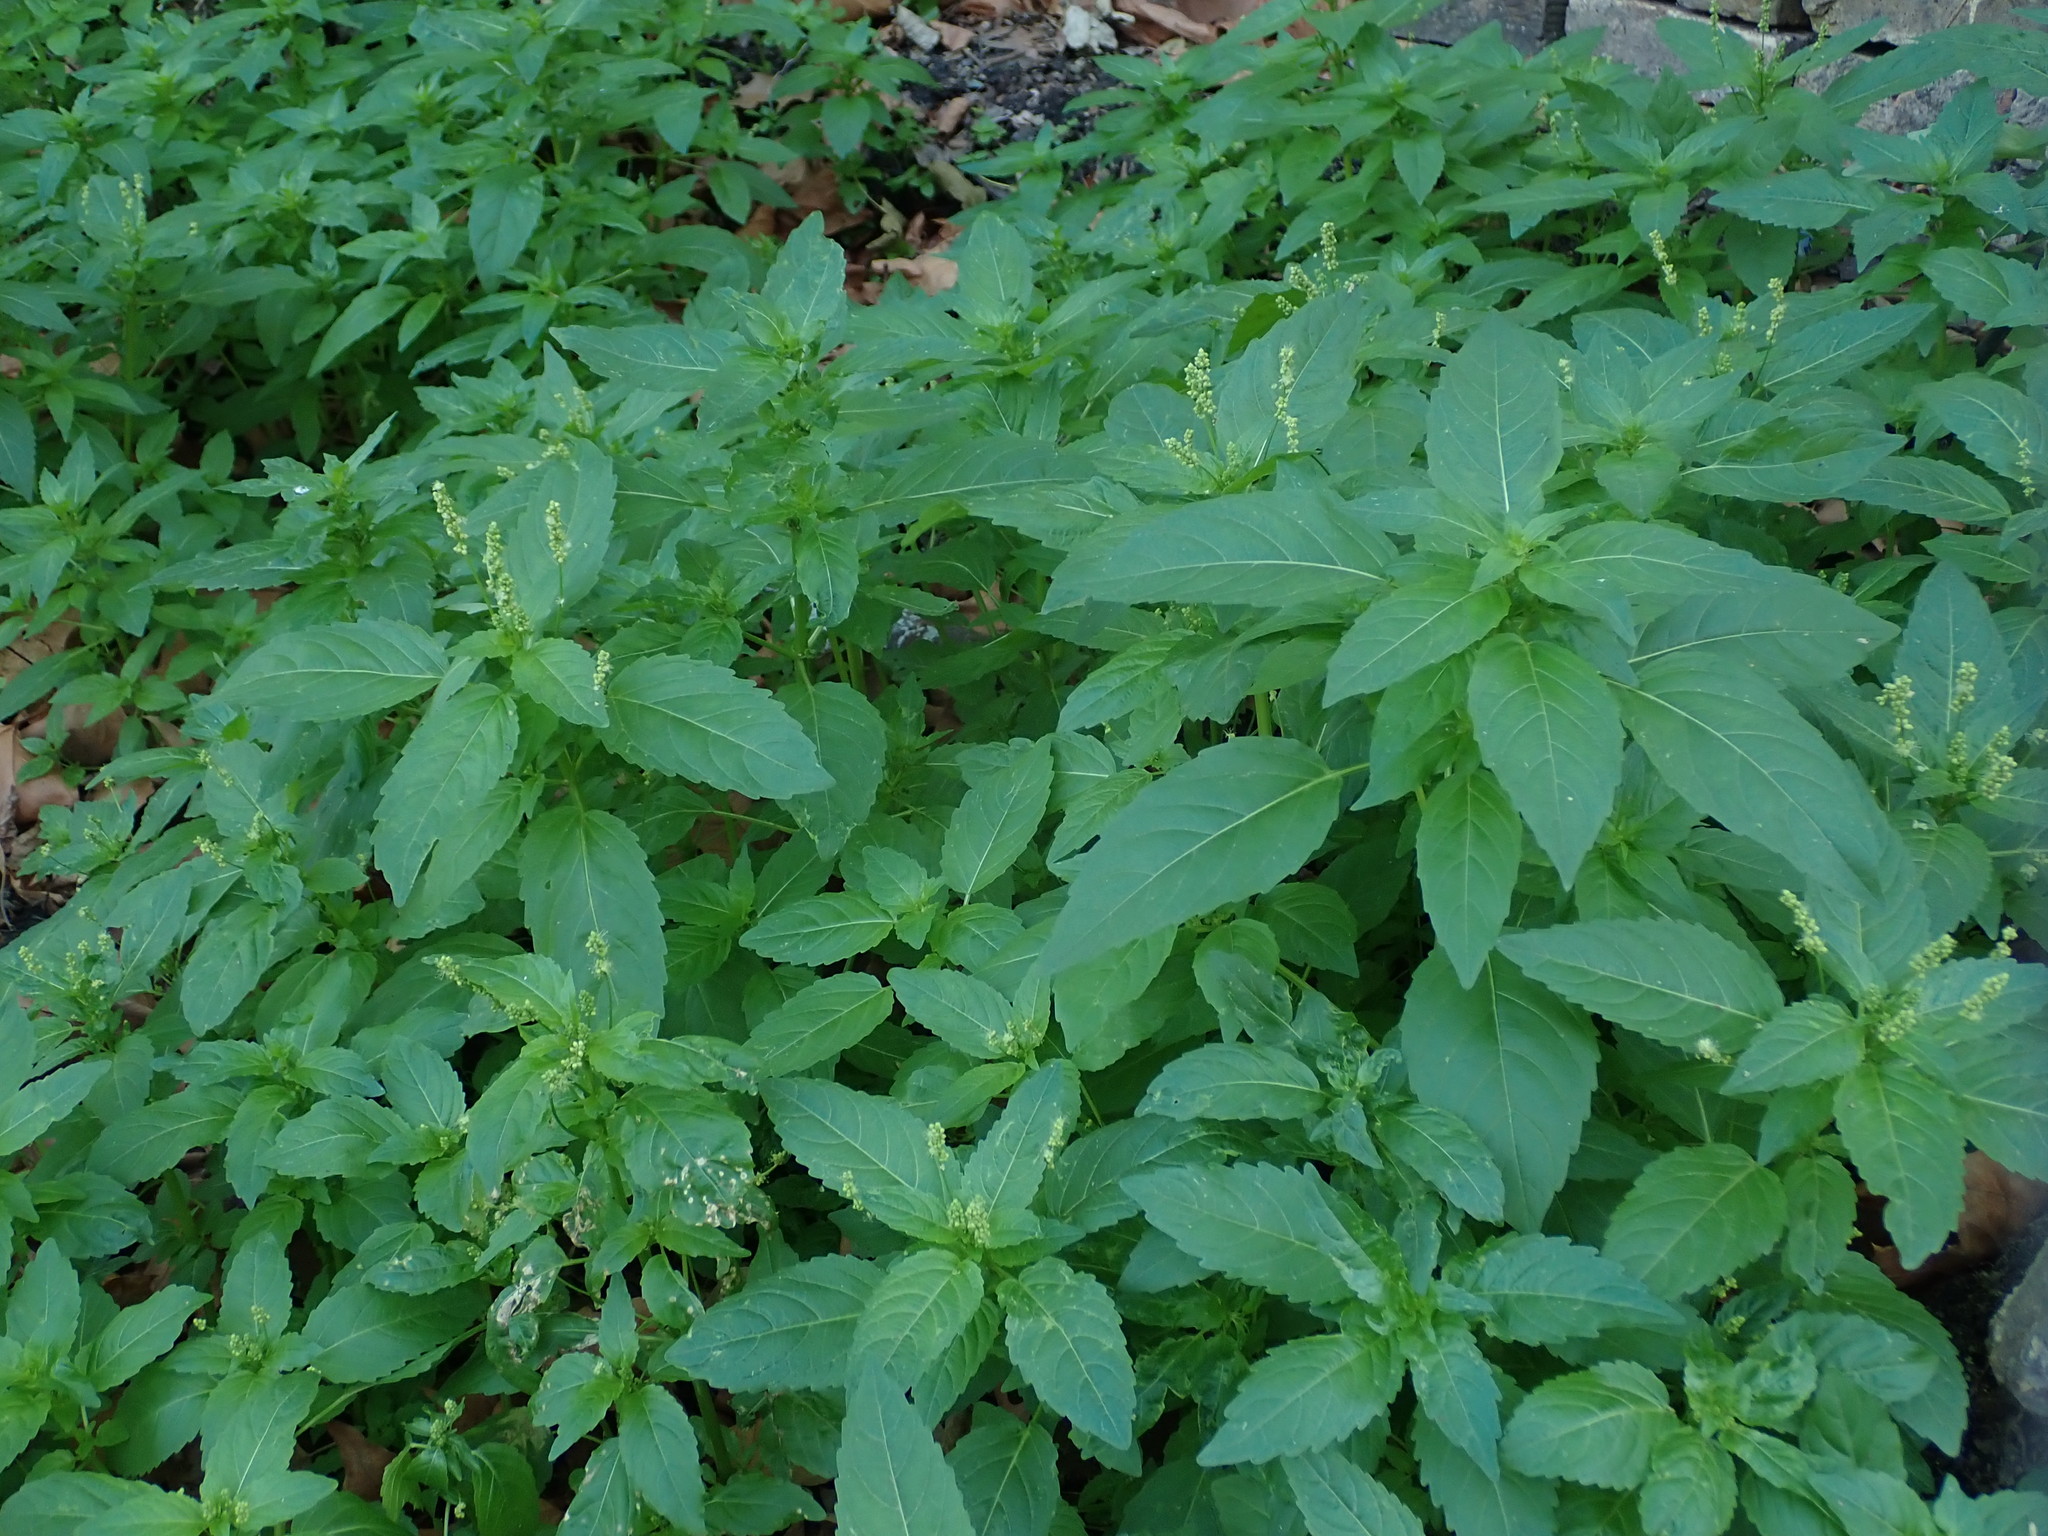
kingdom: Plantae
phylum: Tracheophyta
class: Magnoliopsida
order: Malpighiales
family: Euphorbiaceae
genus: Mercurialis
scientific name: Mercurialis annua
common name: Annual mercury
